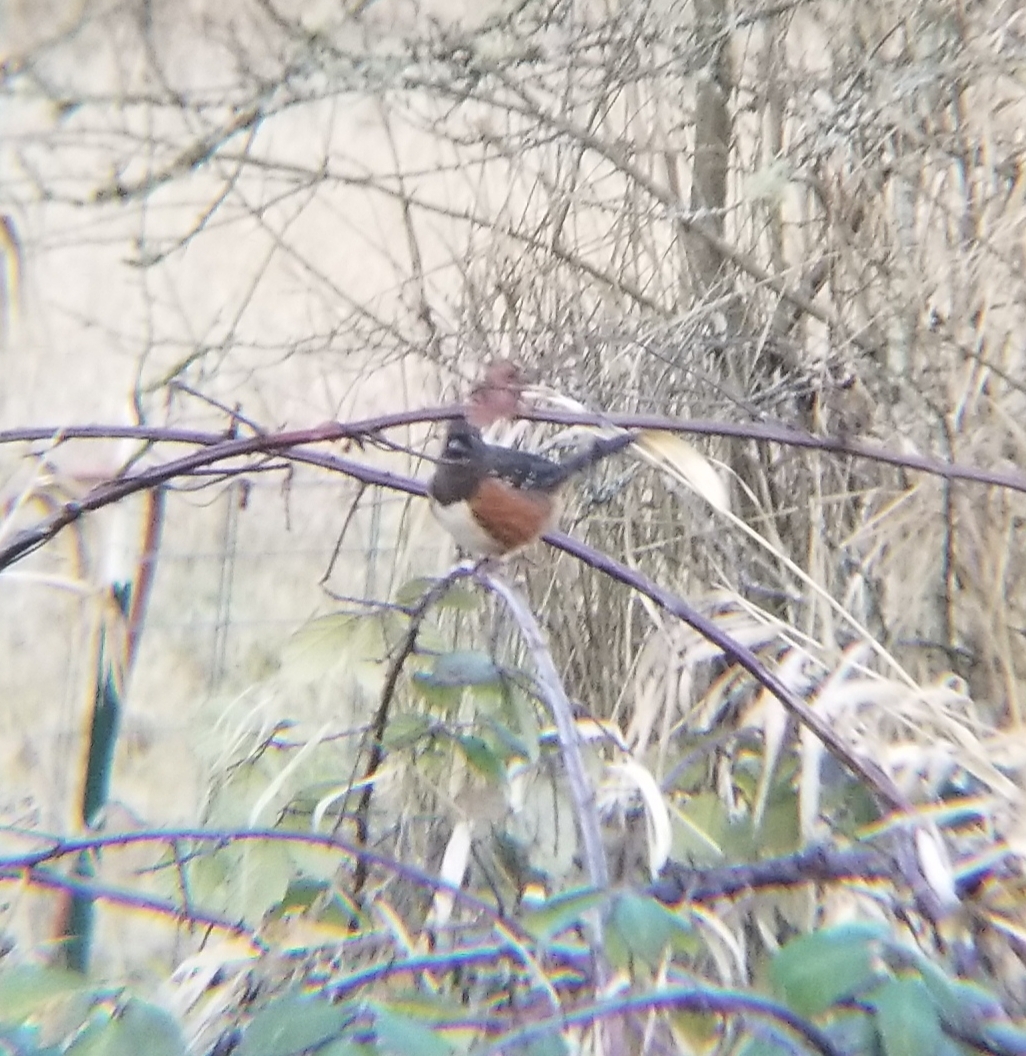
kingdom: Animalia
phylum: Chordata
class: Aves
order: Passeriformes
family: Passerellidae
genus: Pipilo
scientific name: Pipilo maculatus
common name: Spotted towhee
